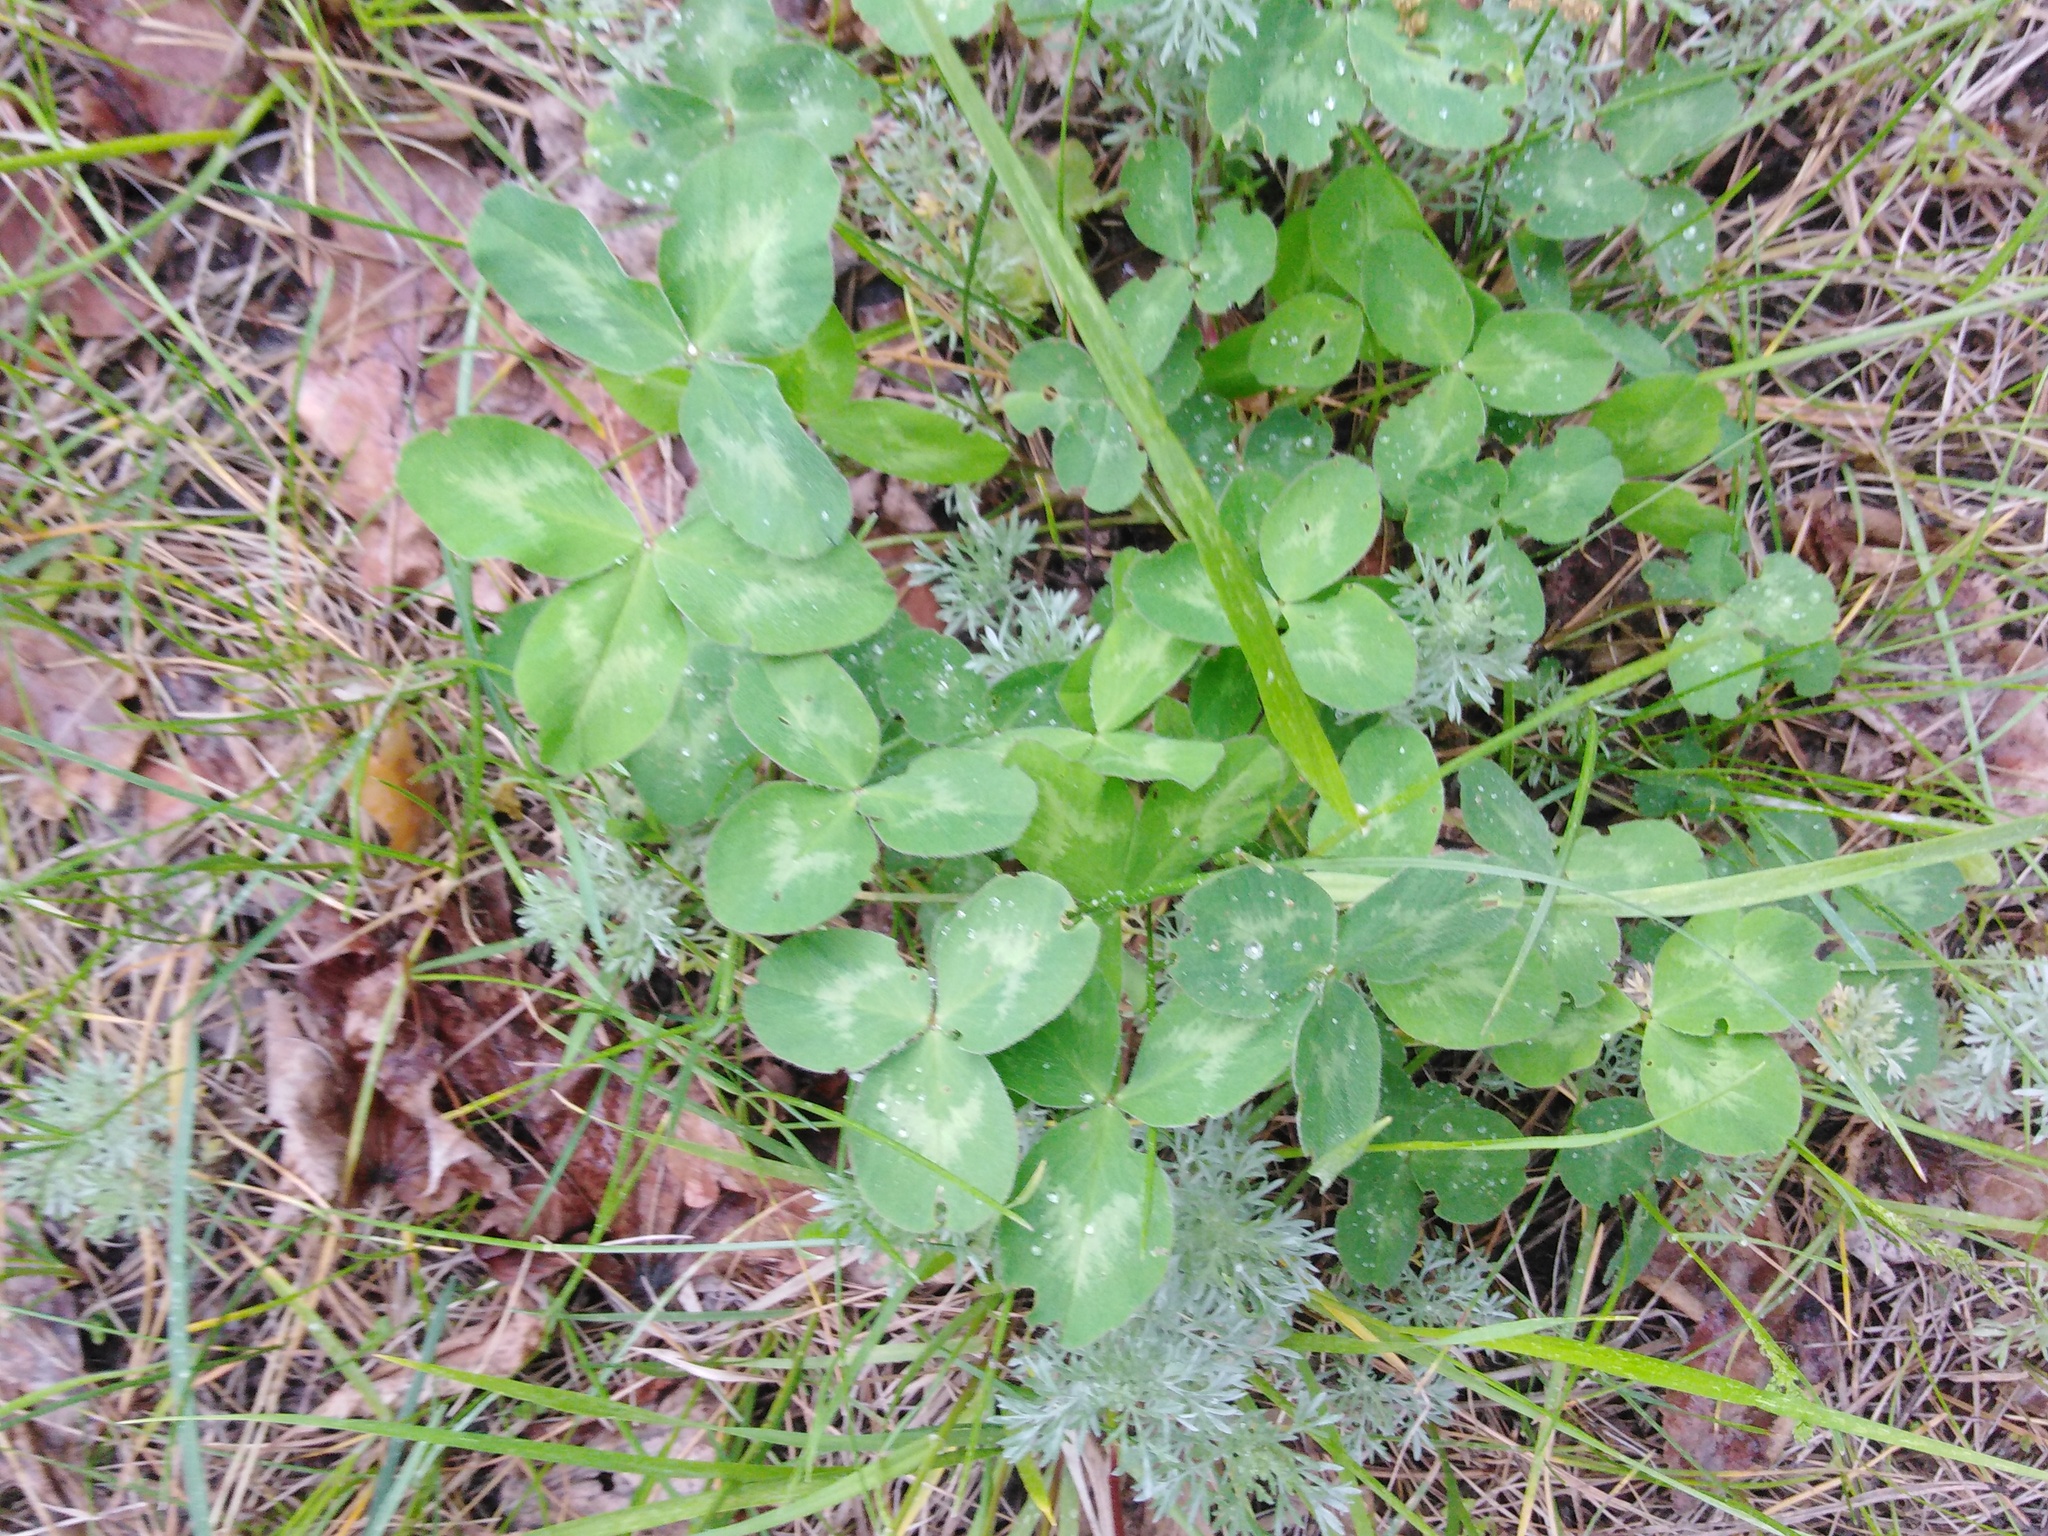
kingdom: Plantae
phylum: Tracheophyta
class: Magnoliopsida
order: Fabales
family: Fabaceae
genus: Trifolium
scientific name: Trifolium pratense
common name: Red clover
